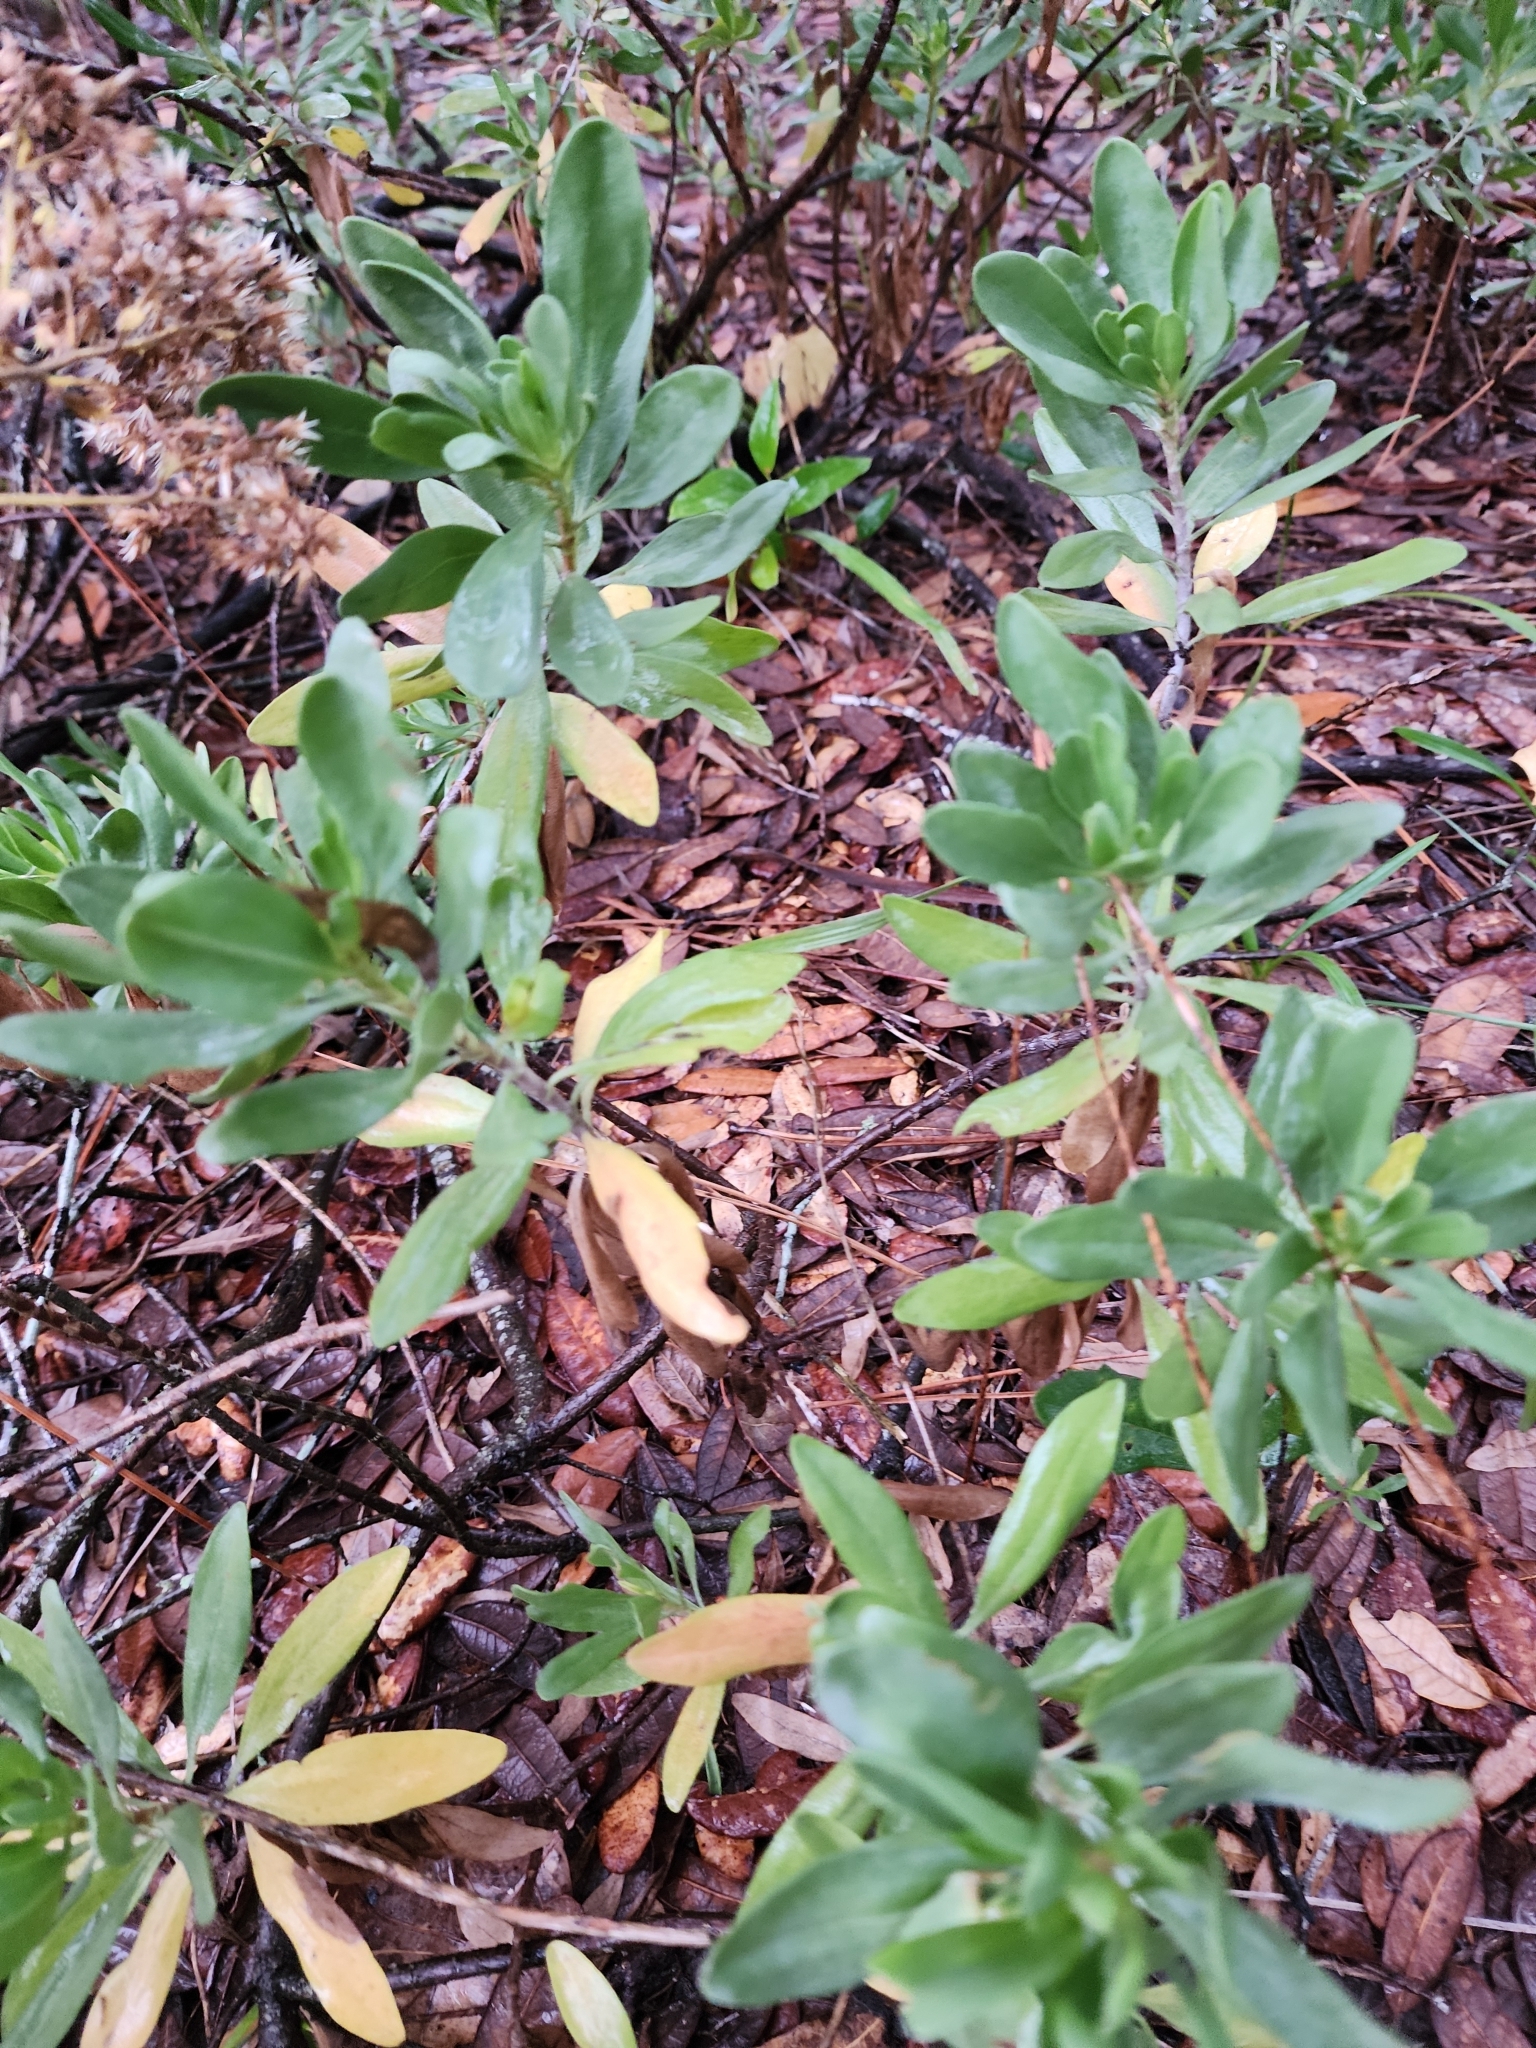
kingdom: Plantae
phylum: Tracheophyta
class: Magnoliopsida
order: Asterales
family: Asteraceae
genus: Chrysoma
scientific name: Chrysoma pauciflosculosa
